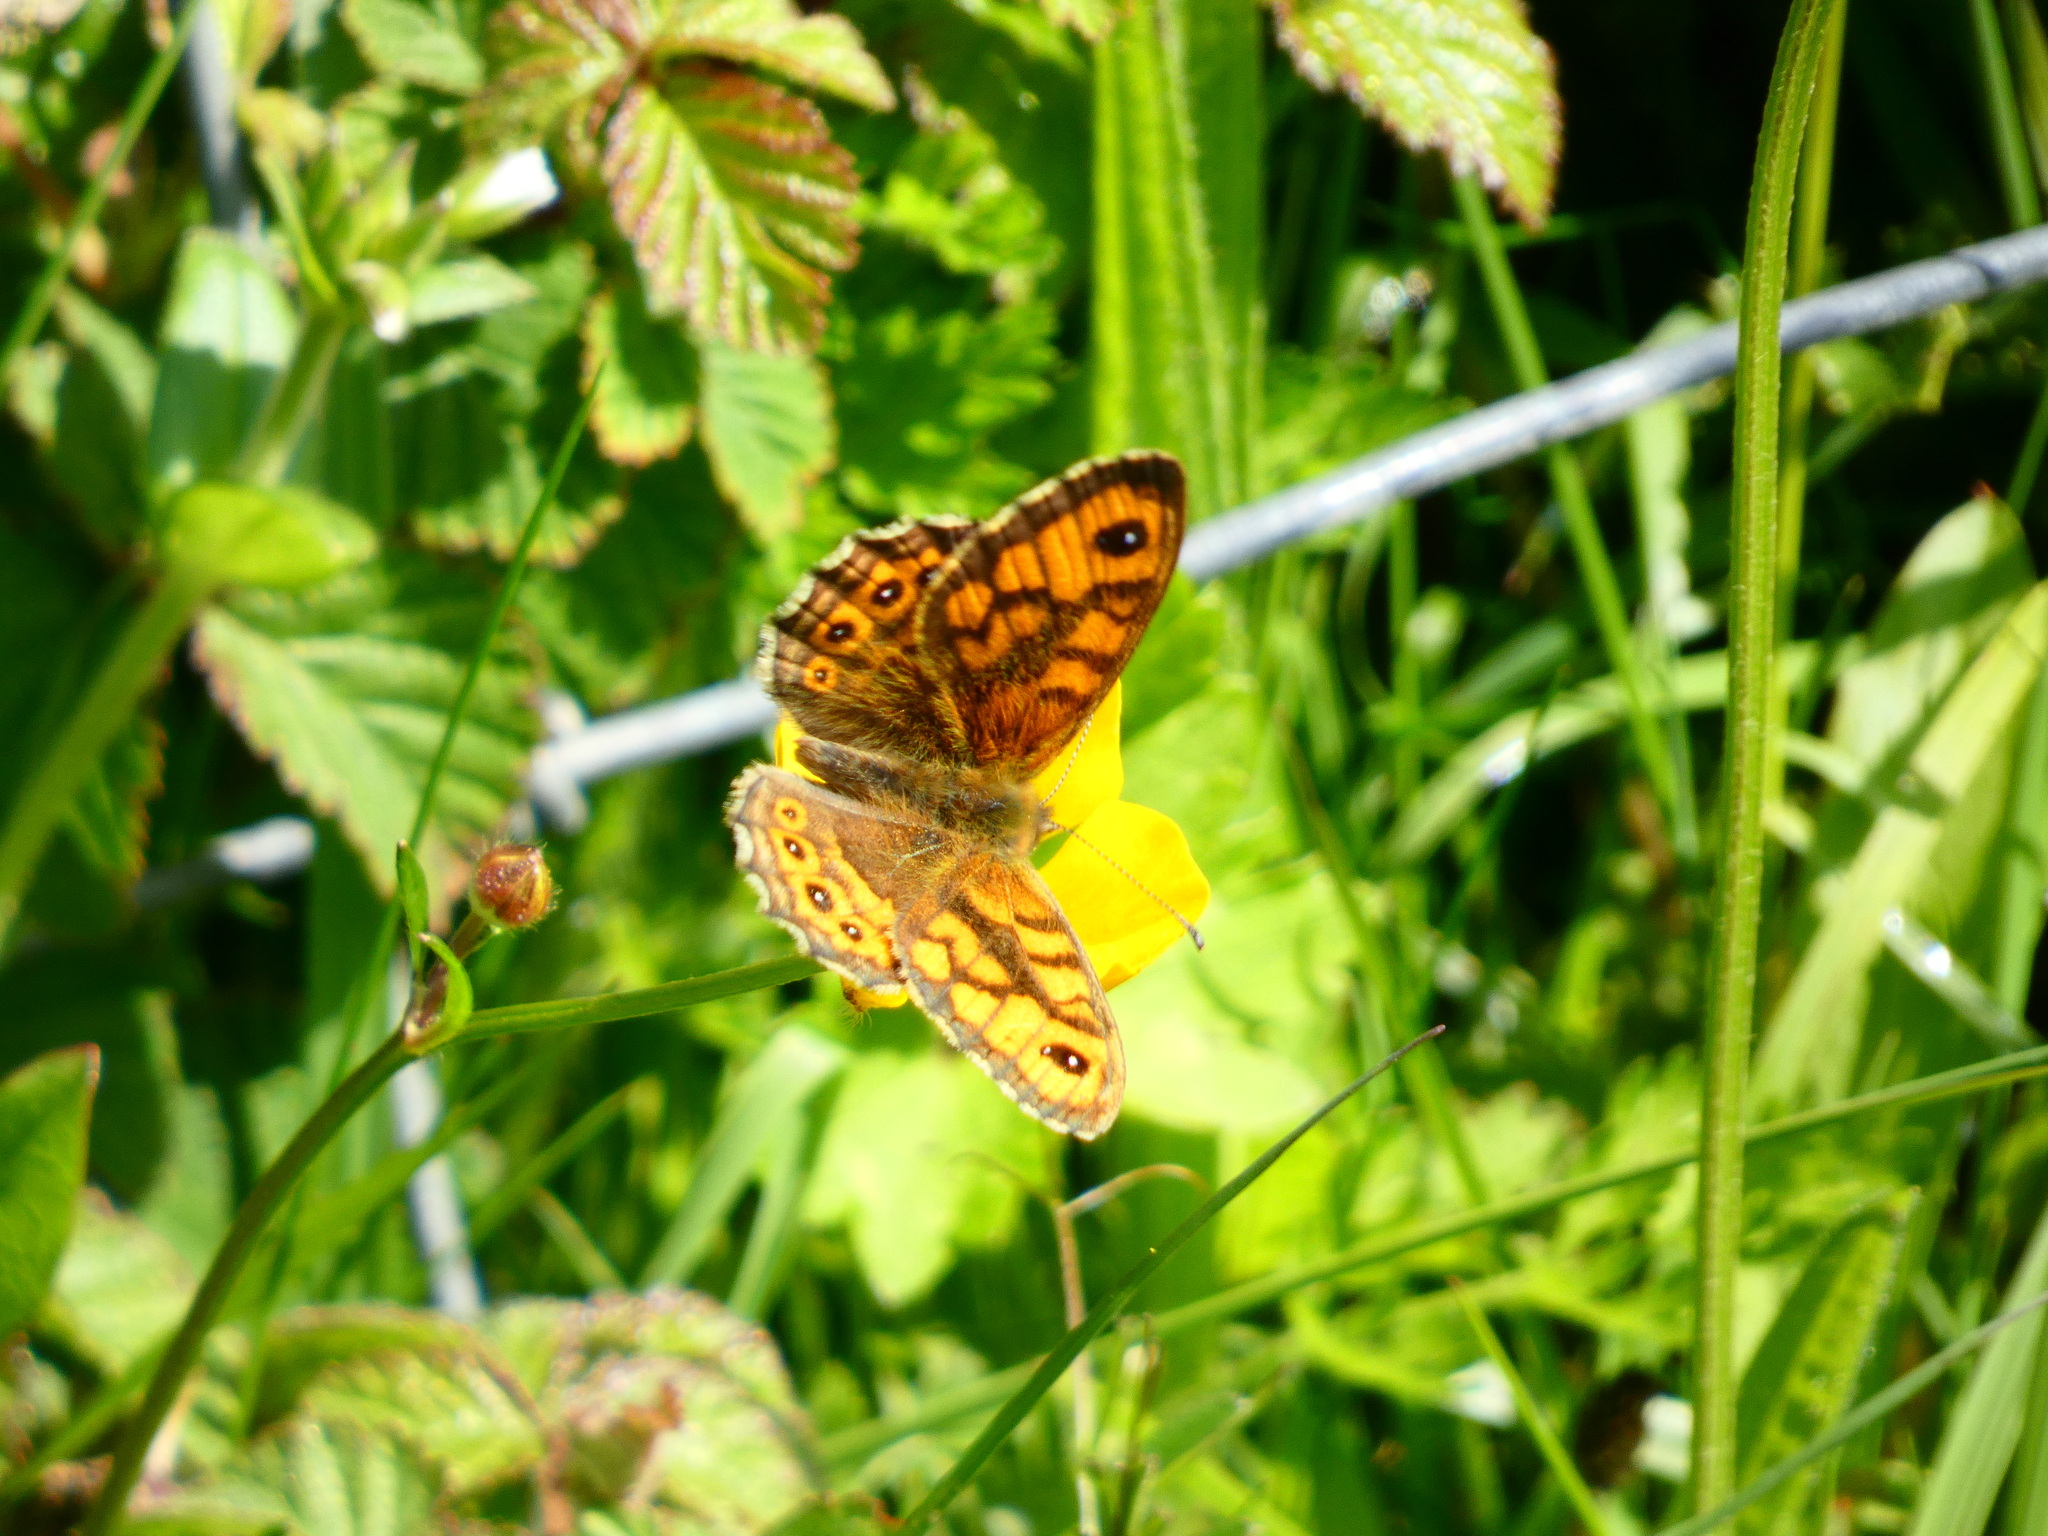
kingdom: Animalia
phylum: Arthropoda
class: Insecta
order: Lepidoptera
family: Nymphalidae
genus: Pararge
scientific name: Pararge Lasiommata megera
